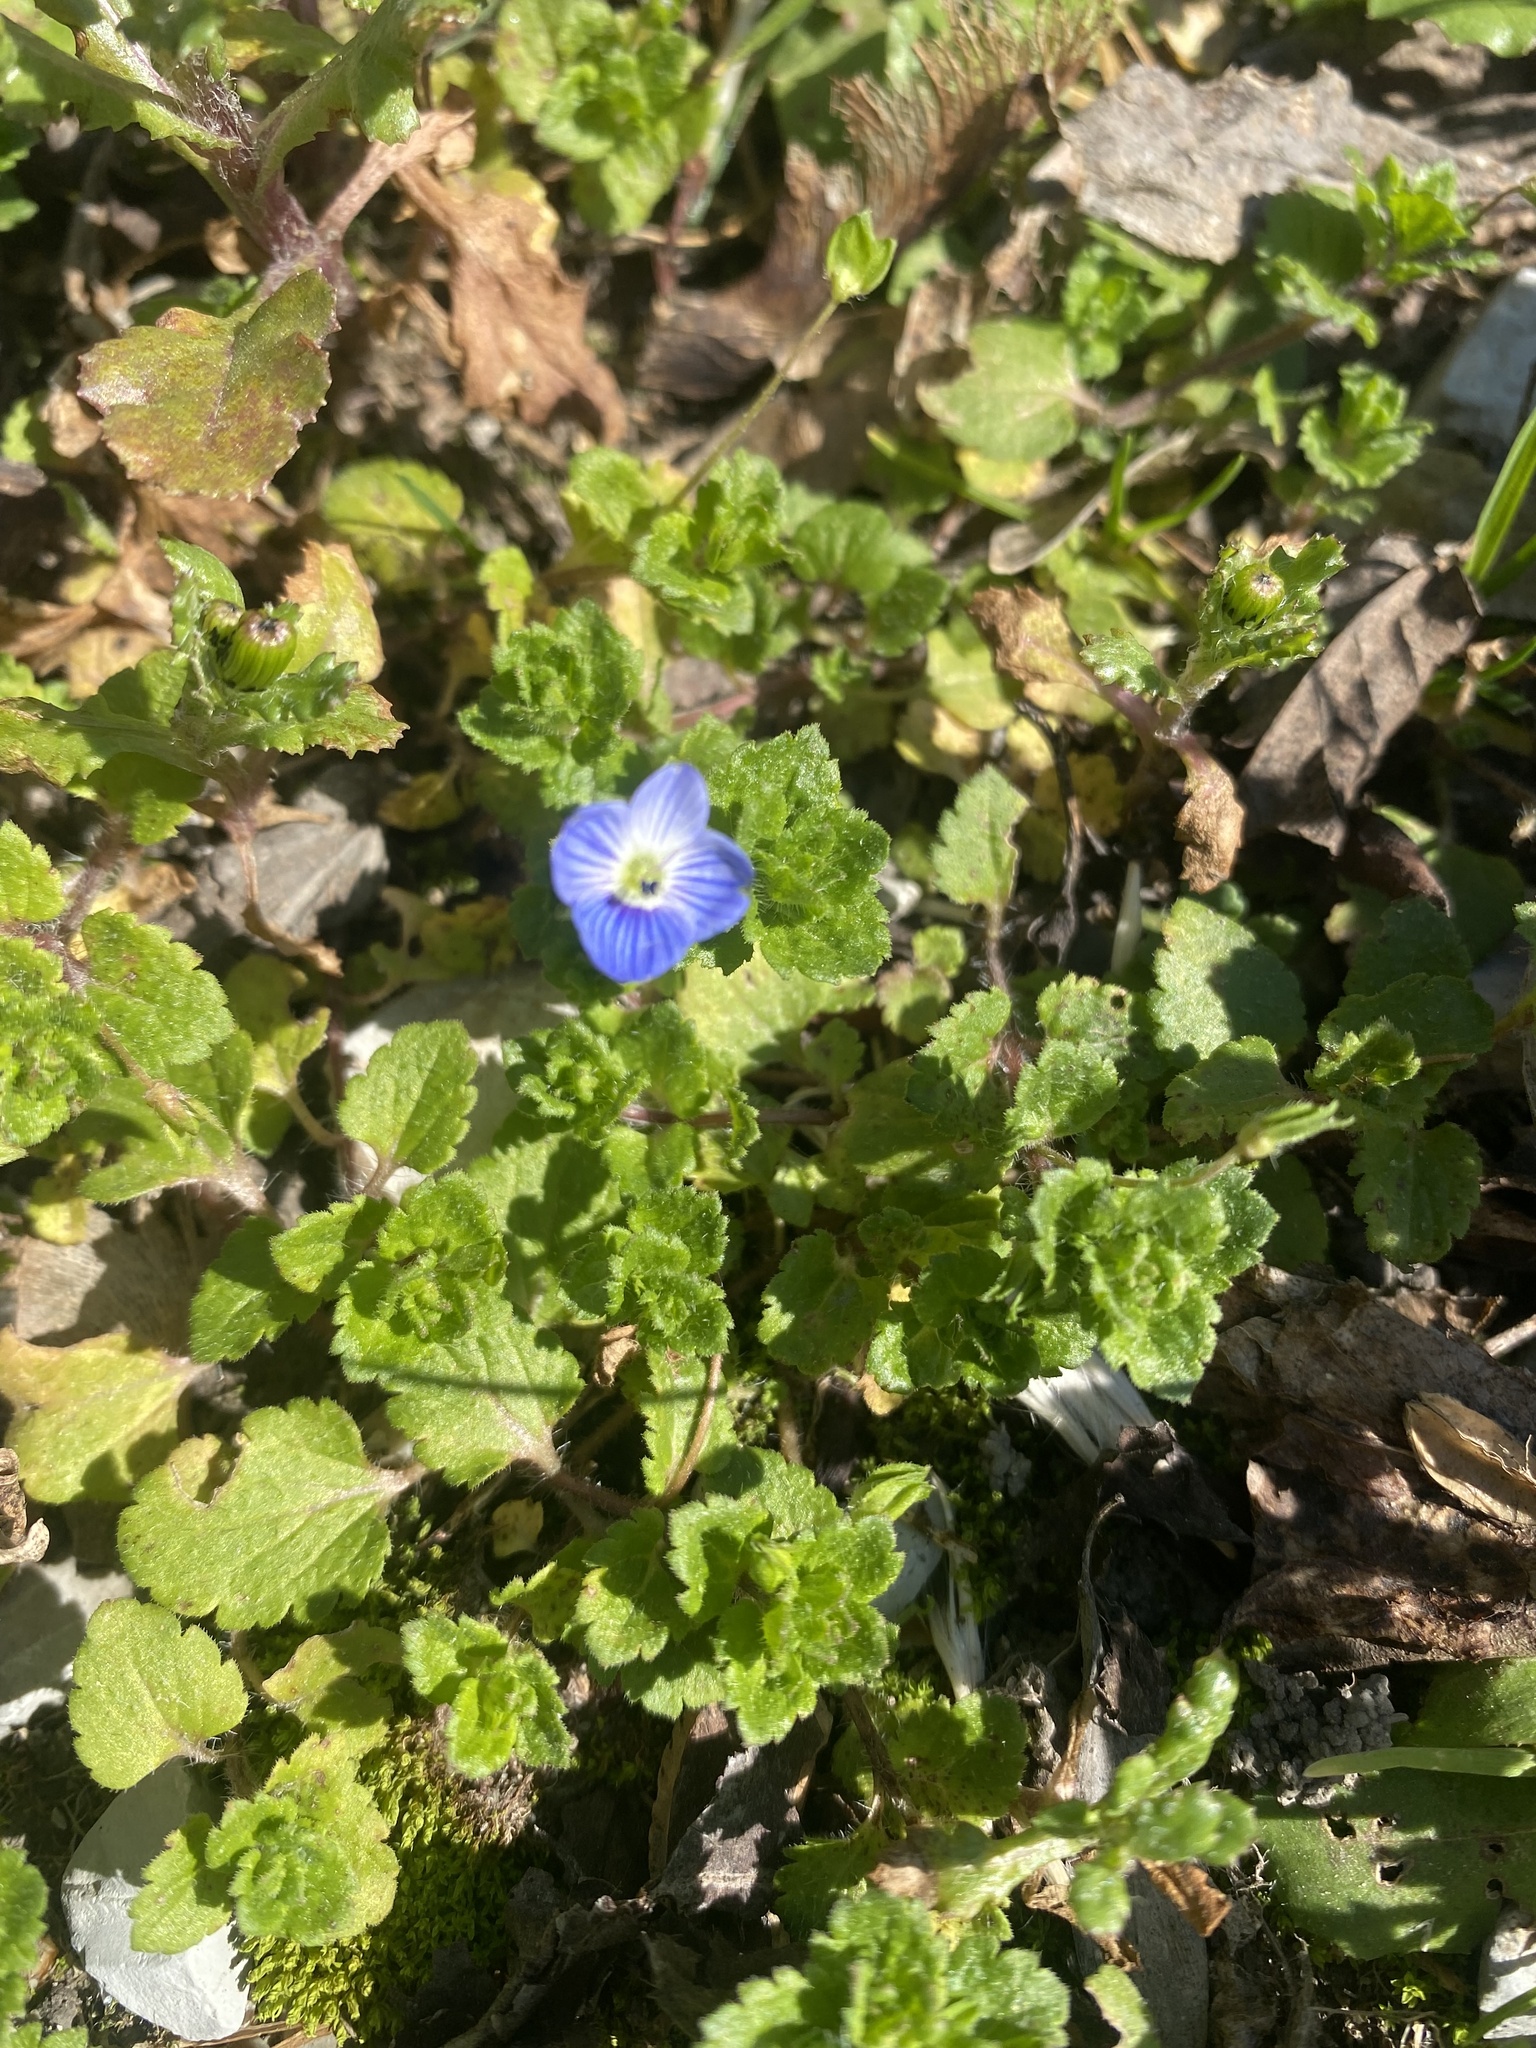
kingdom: Plantae
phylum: Tracheophyta
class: Magnoliopsida
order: Lamiales
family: Plantaginaceae
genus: Veronica
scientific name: Veronica persica
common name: Common field-speedwell
